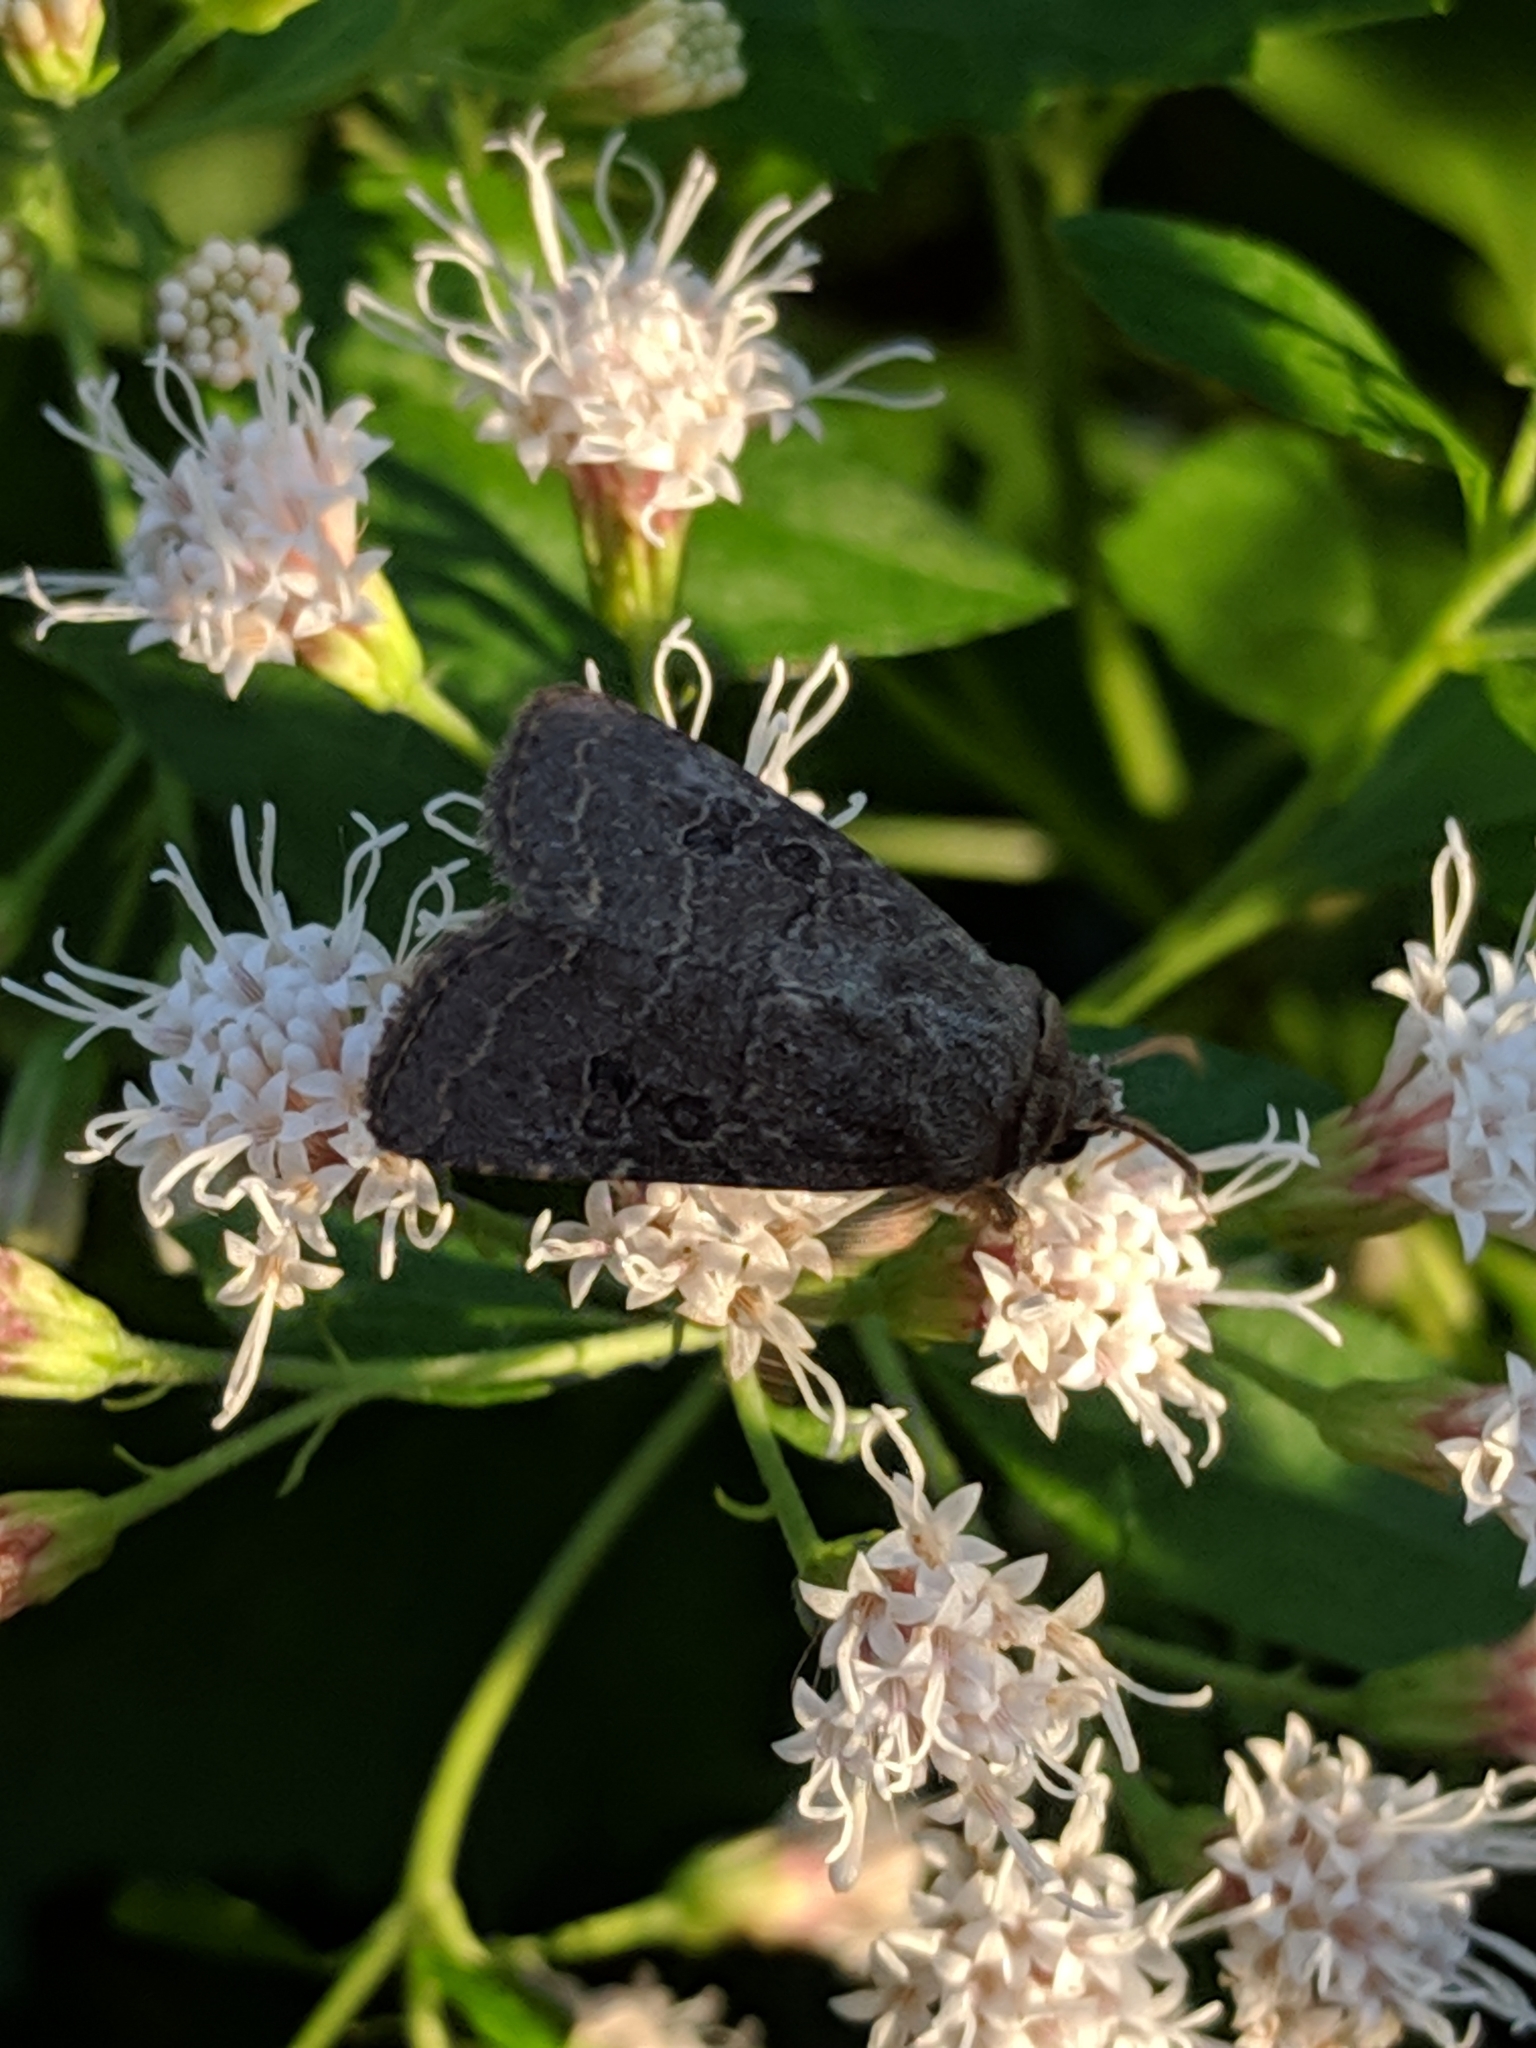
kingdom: Animalia
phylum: Arthropoda
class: Insecta
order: Lepidoptera
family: Noctuidae
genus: Trichopolia
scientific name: Trichopolia
